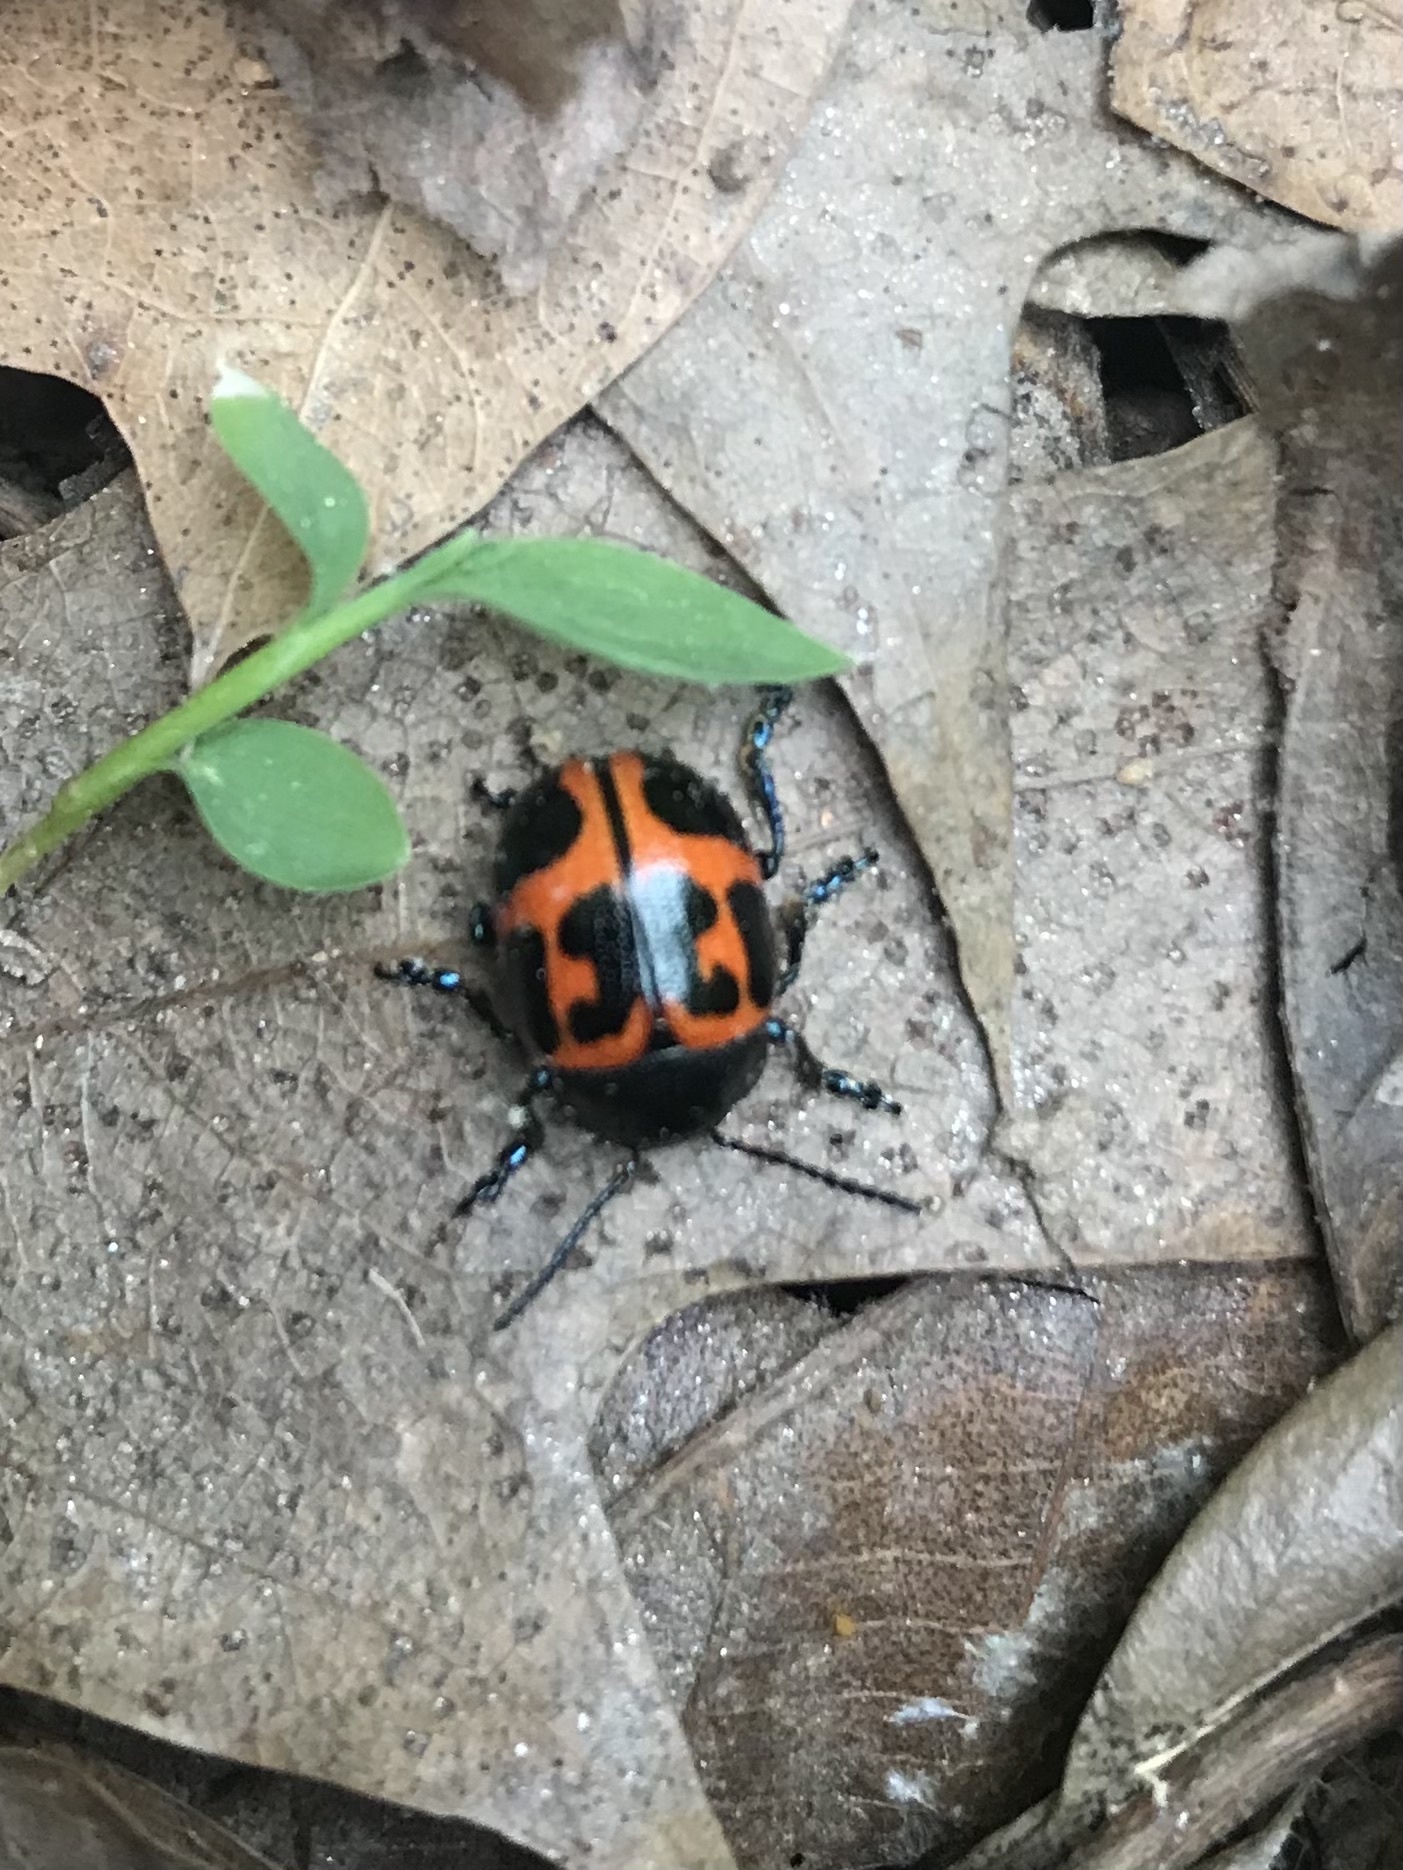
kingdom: Animalia
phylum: Arthropoda
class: Insecta
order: Coleoptera
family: Chrysomelidae
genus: Labidomera
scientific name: Labidomera clivicollis
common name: Swamp milkweed leaf beetle
